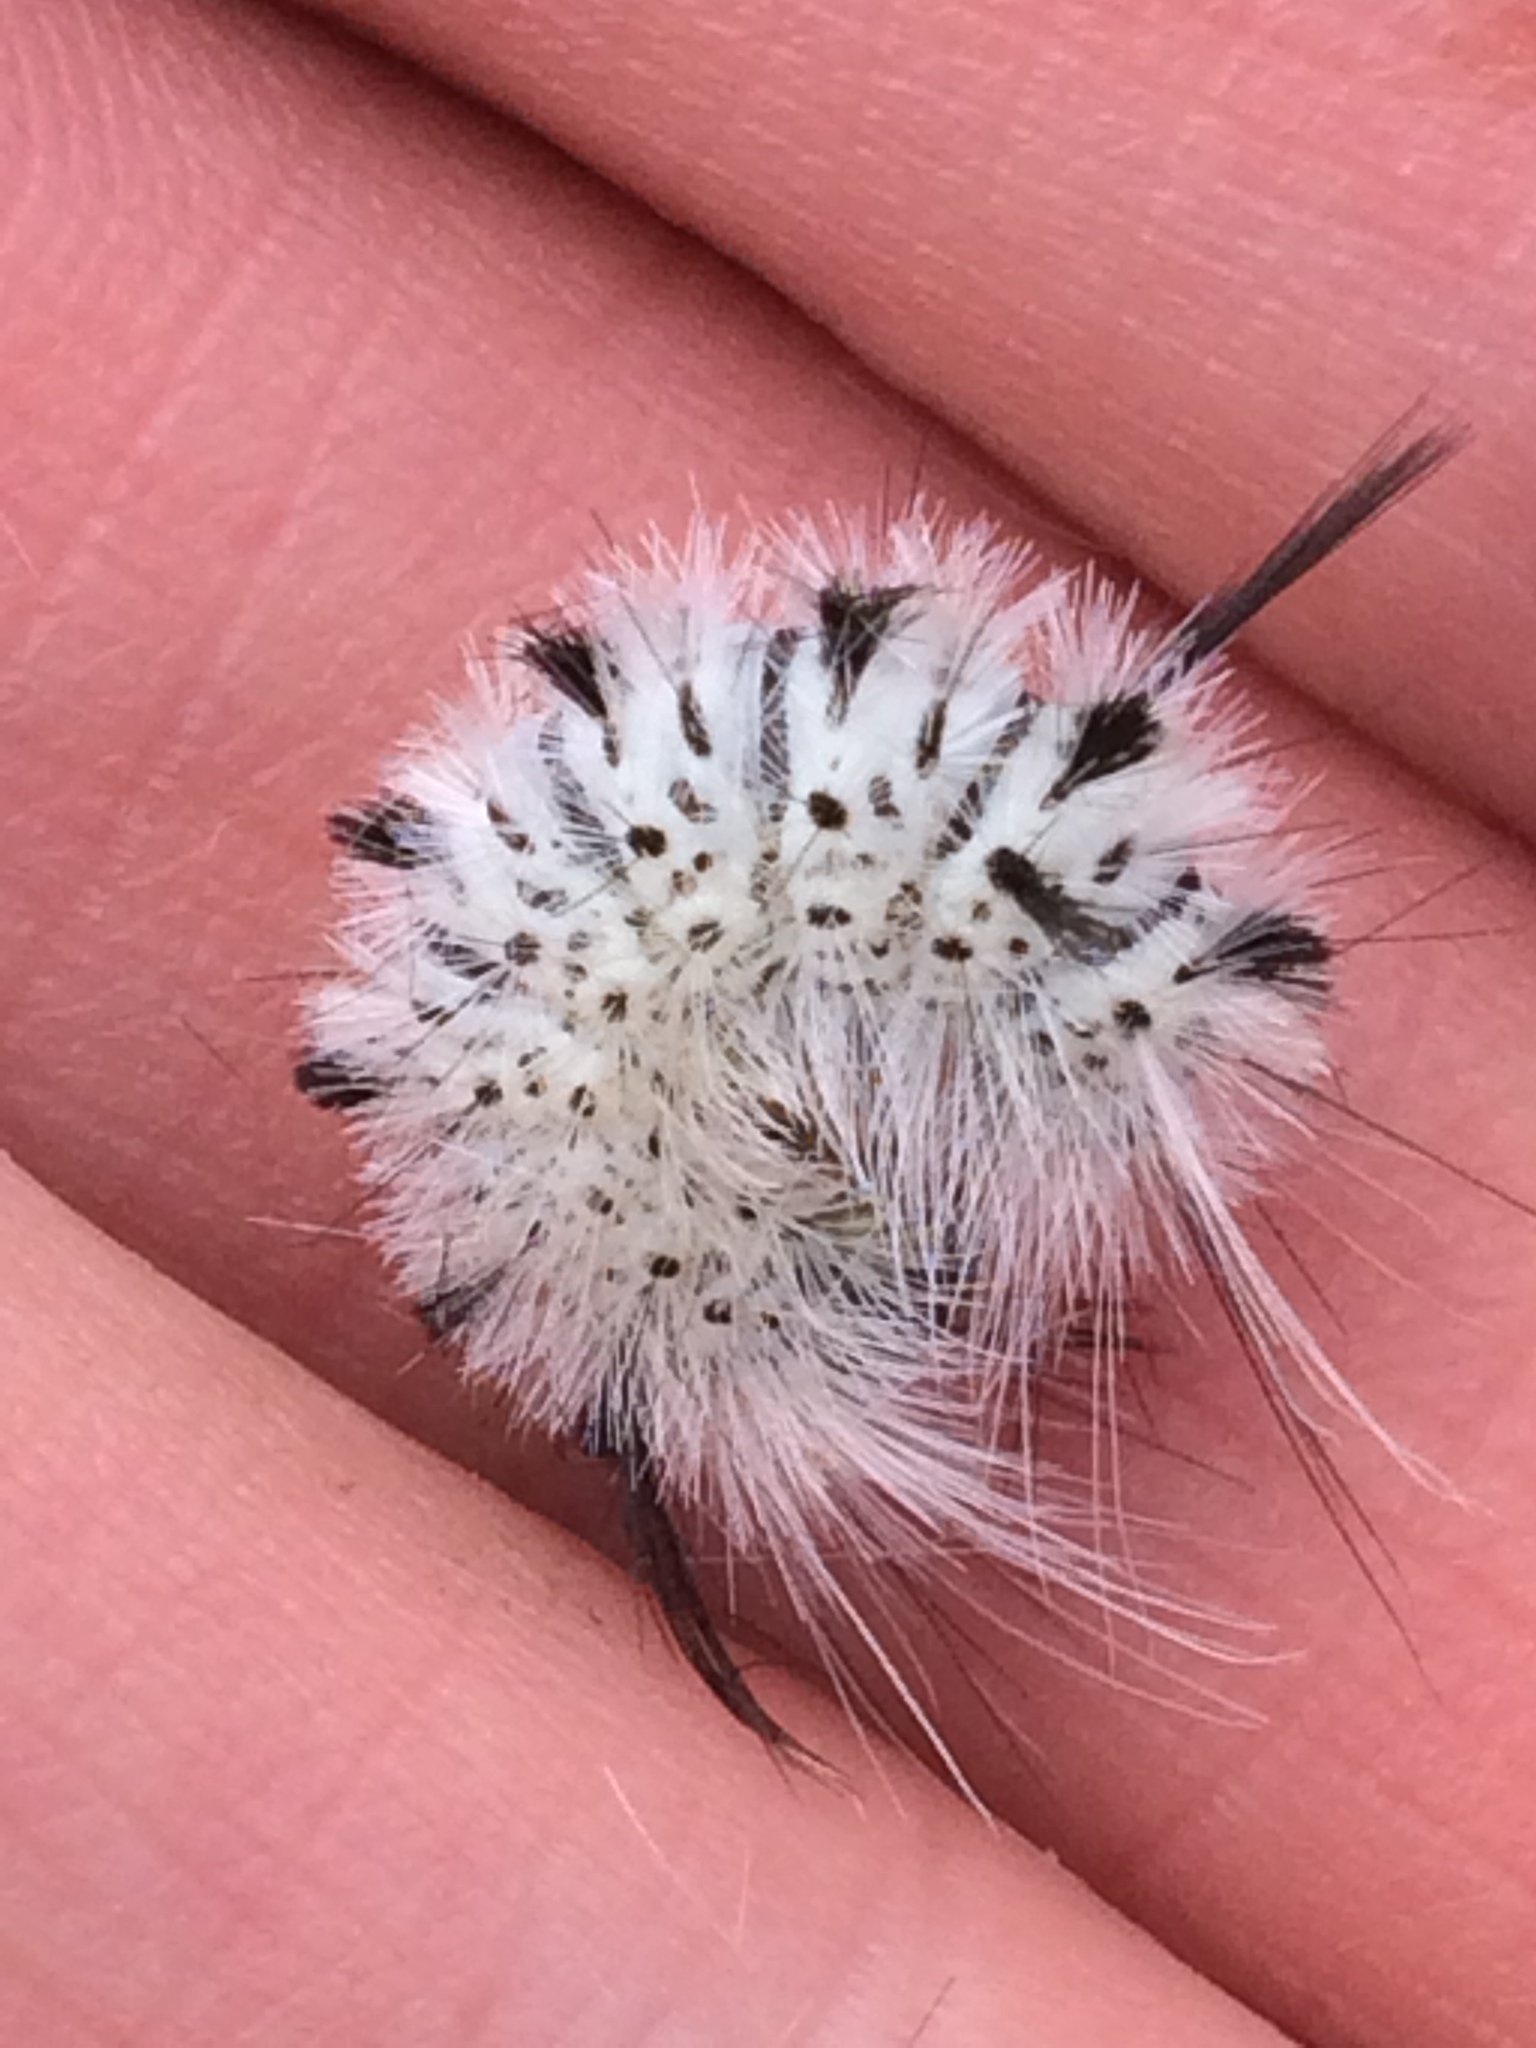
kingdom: Animalia
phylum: Arthropoda
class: Insecta
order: Lepidoptera
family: Erebidae
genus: Lophocampa
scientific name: Lophocampa caryae
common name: Hickory tussock moth
